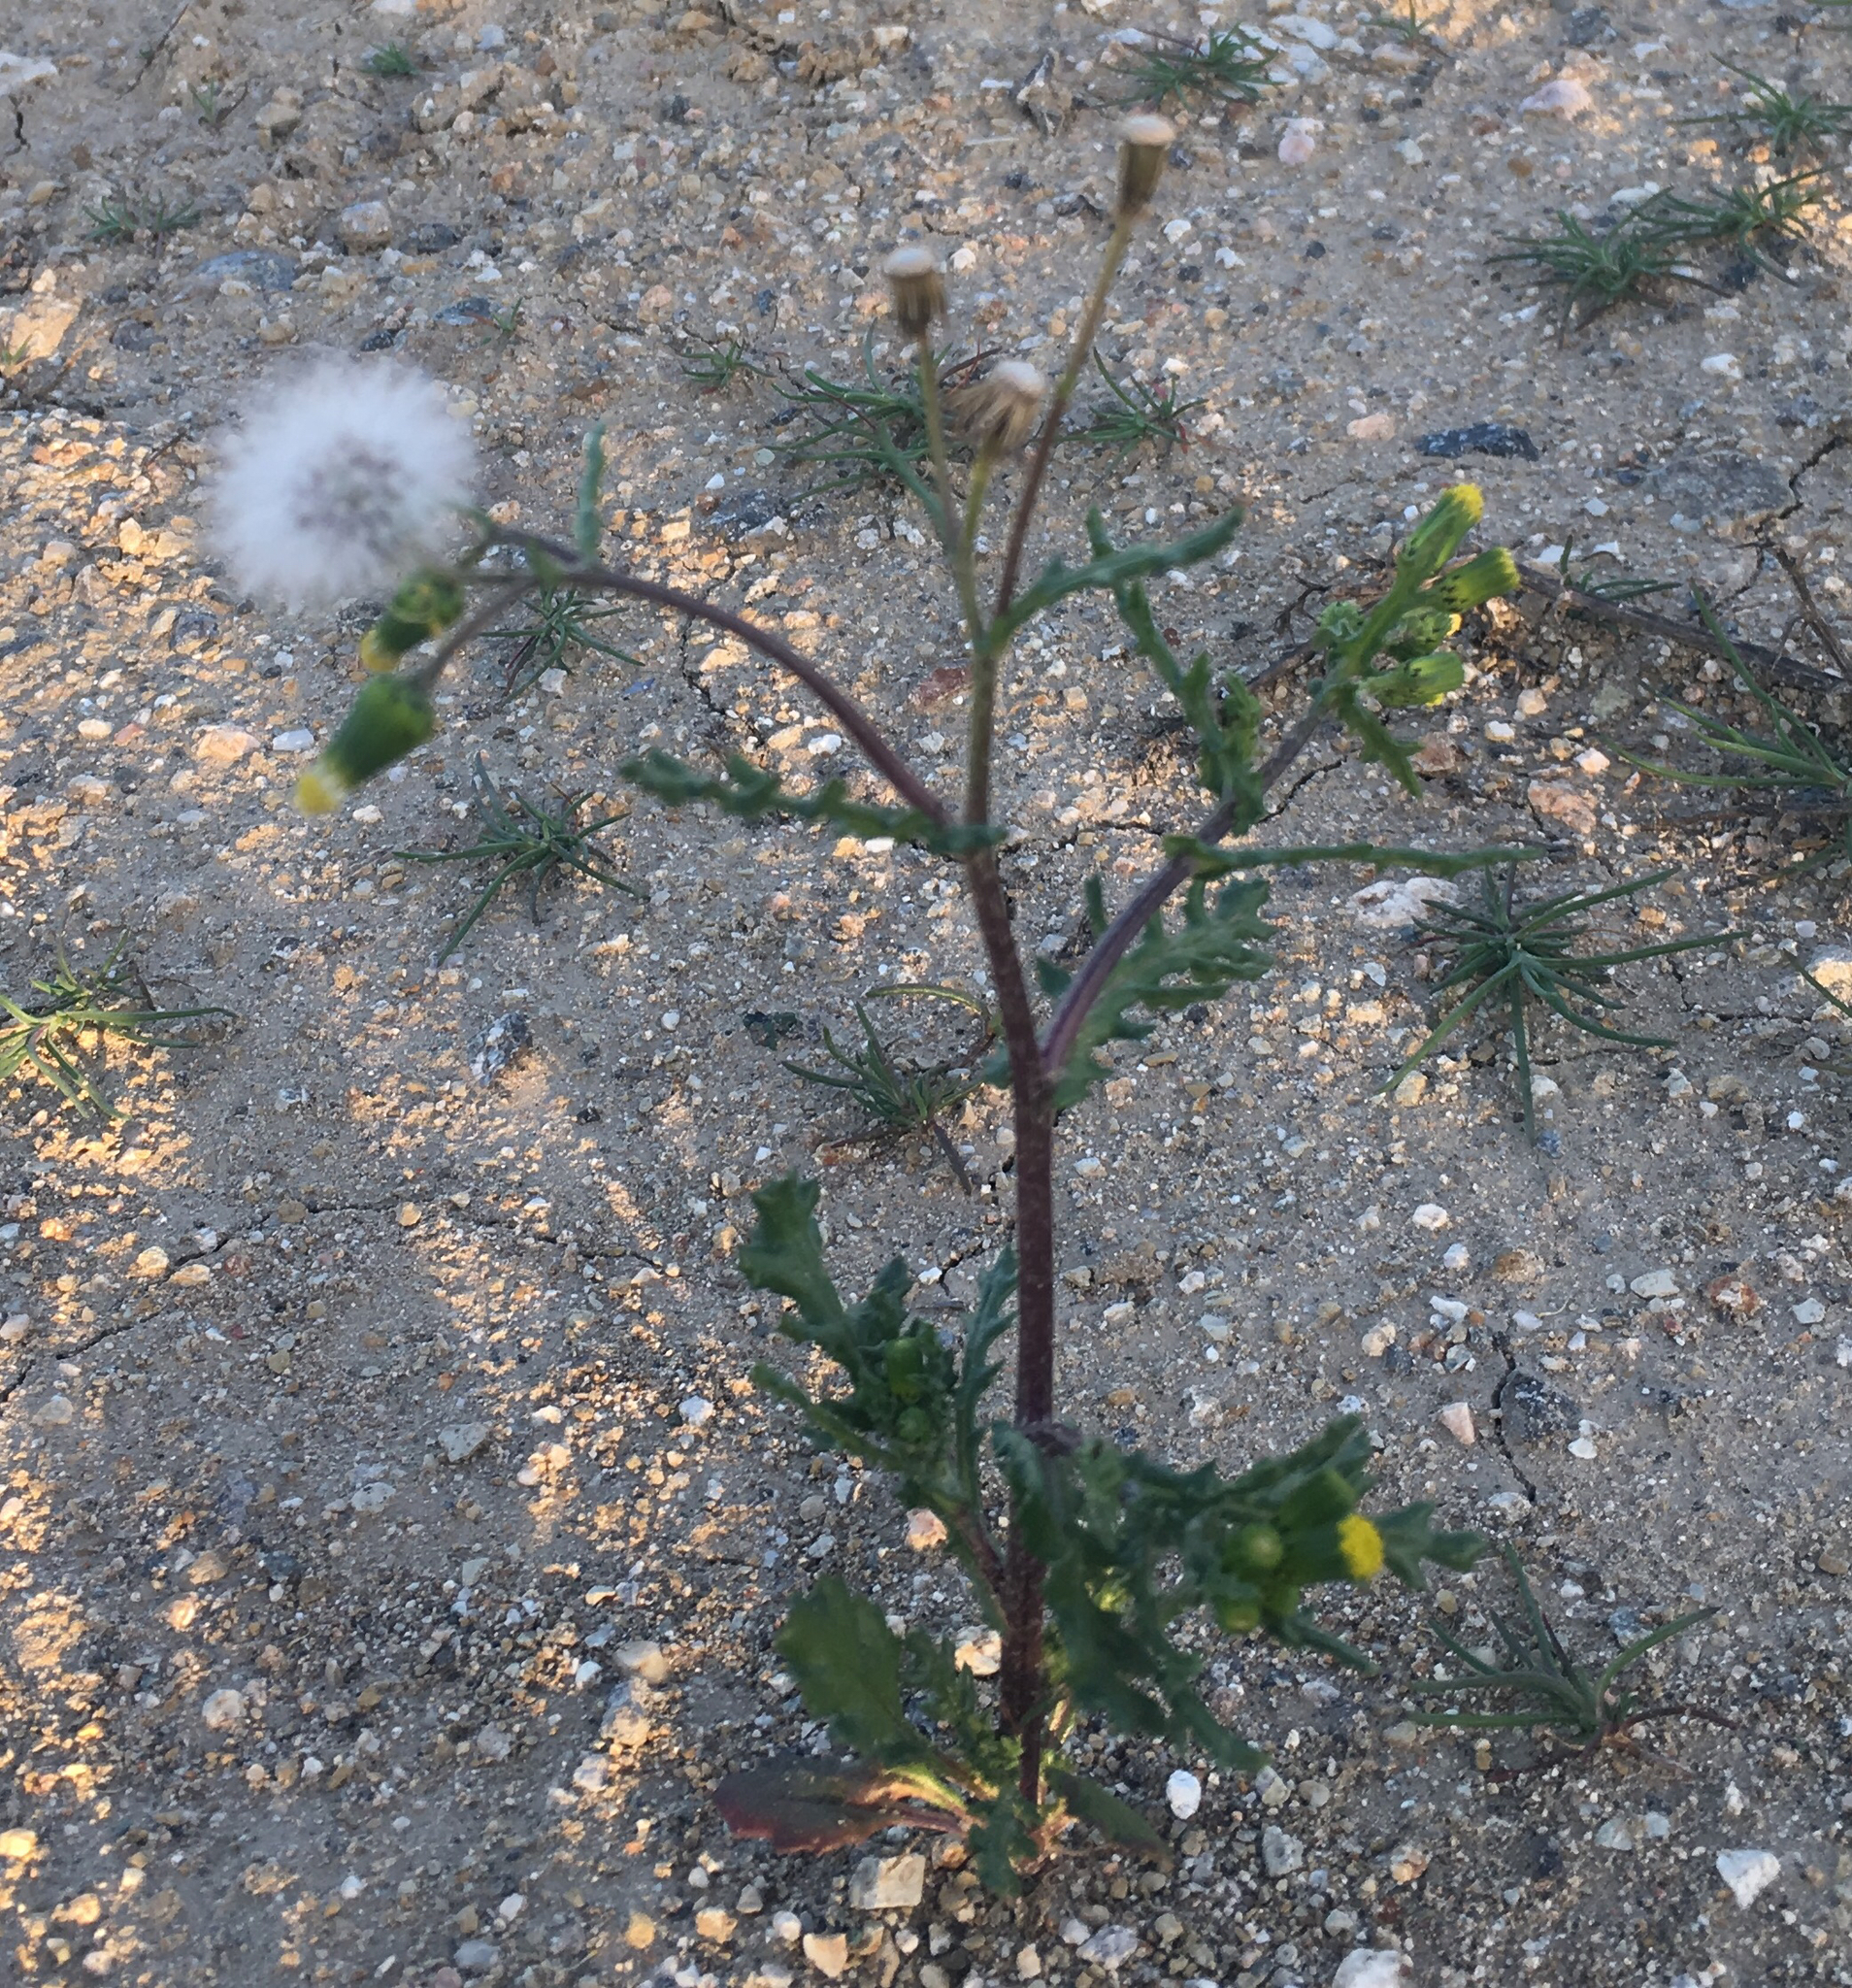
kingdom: Plantae
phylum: Tracheophyta
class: Magnoliopsida
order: Asterales
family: Asteraceae
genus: Senecio
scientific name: Senecio vulgaris
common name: Old-man-in-the-spring
